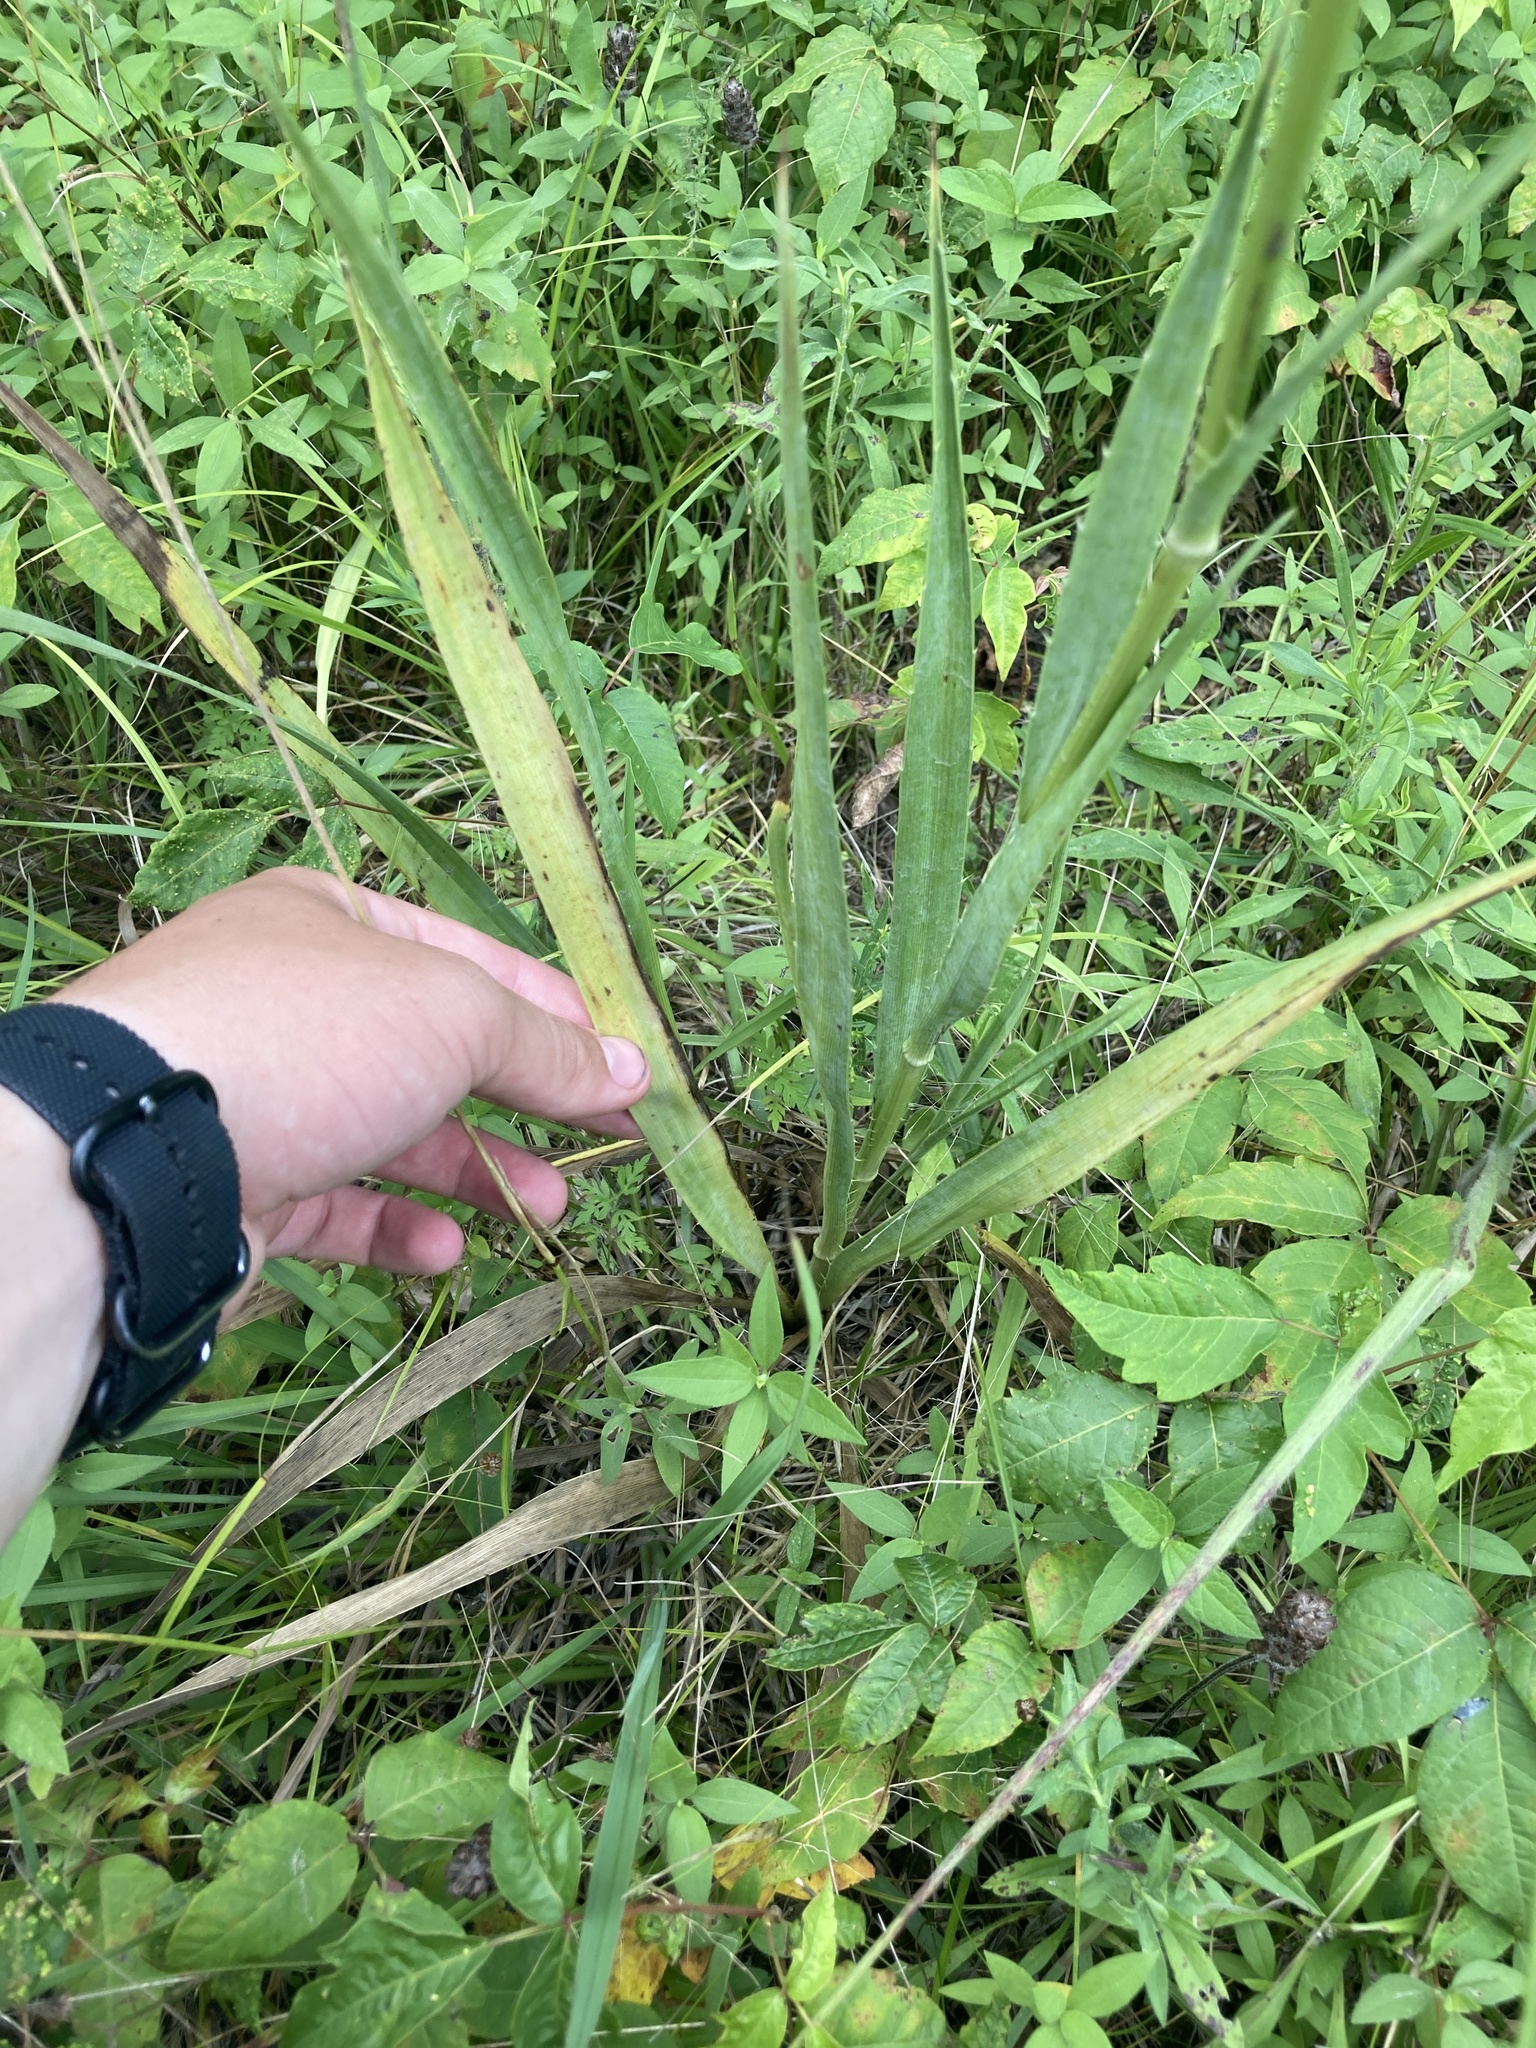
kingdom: Plantae
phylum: Tracheophyta
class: Magnoliopsida
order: Apiales
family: Apiaceae
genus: Eryngium
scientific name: Eryngium yuccifolium
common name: Button eryngo
